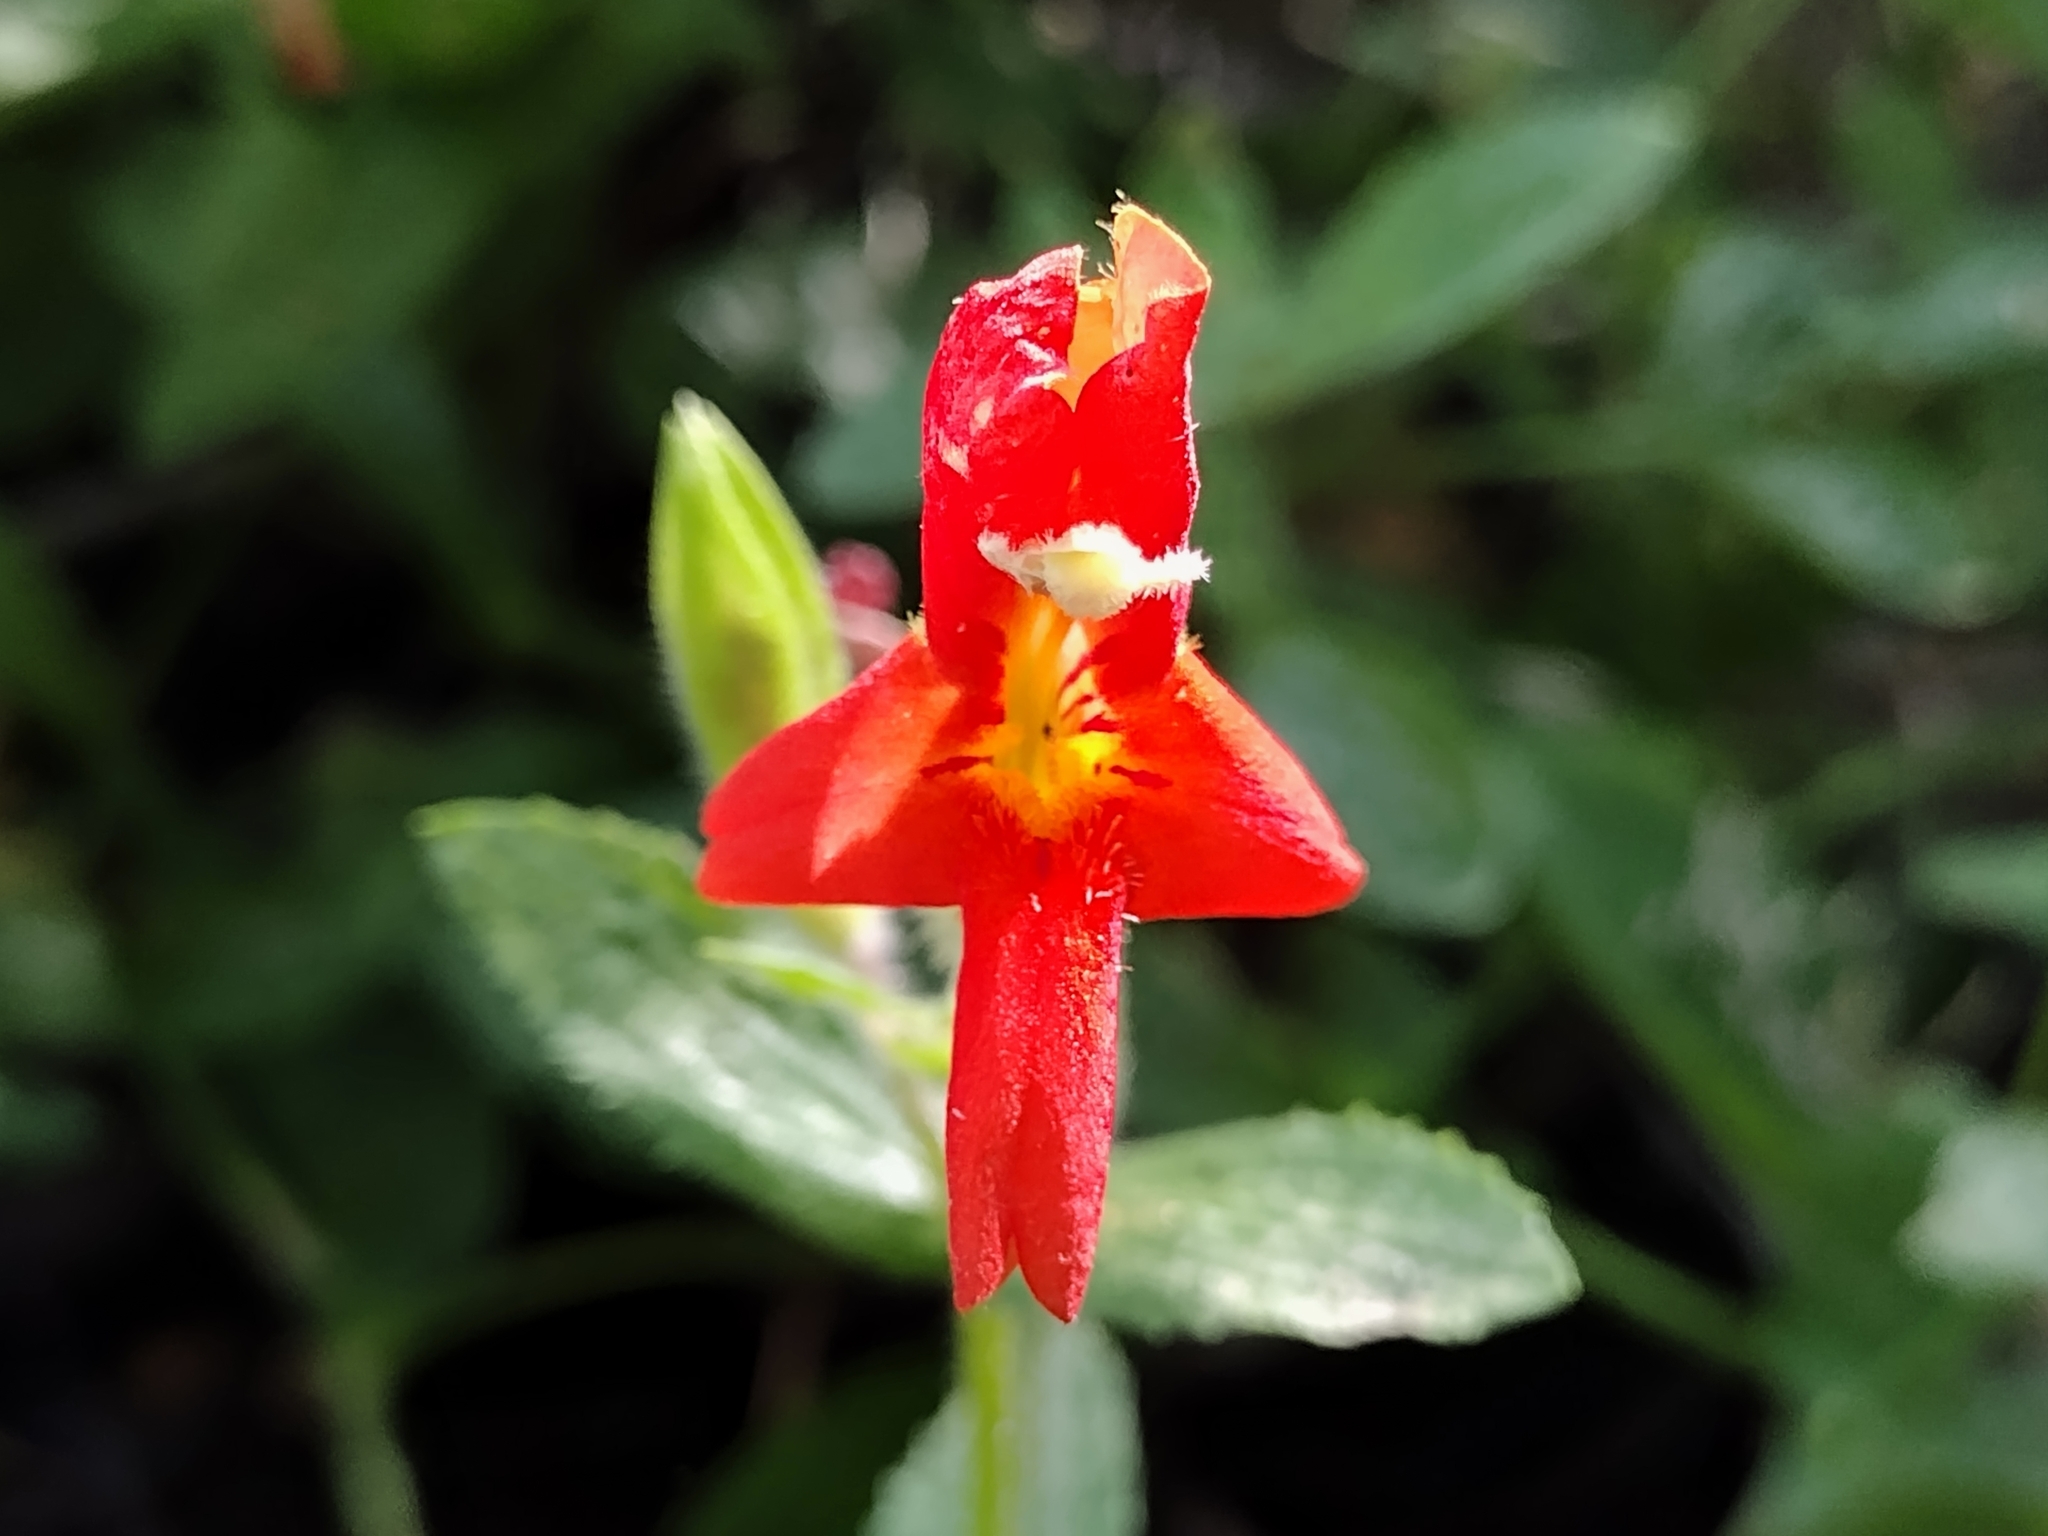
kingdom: Plantae
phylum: Tracheophyta
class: Magnoliopsida
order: Lamiales
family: Phrymaceae
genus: Erythranthe
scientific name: Erythranthe cardinalis
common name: Scarlet monkey-flower
